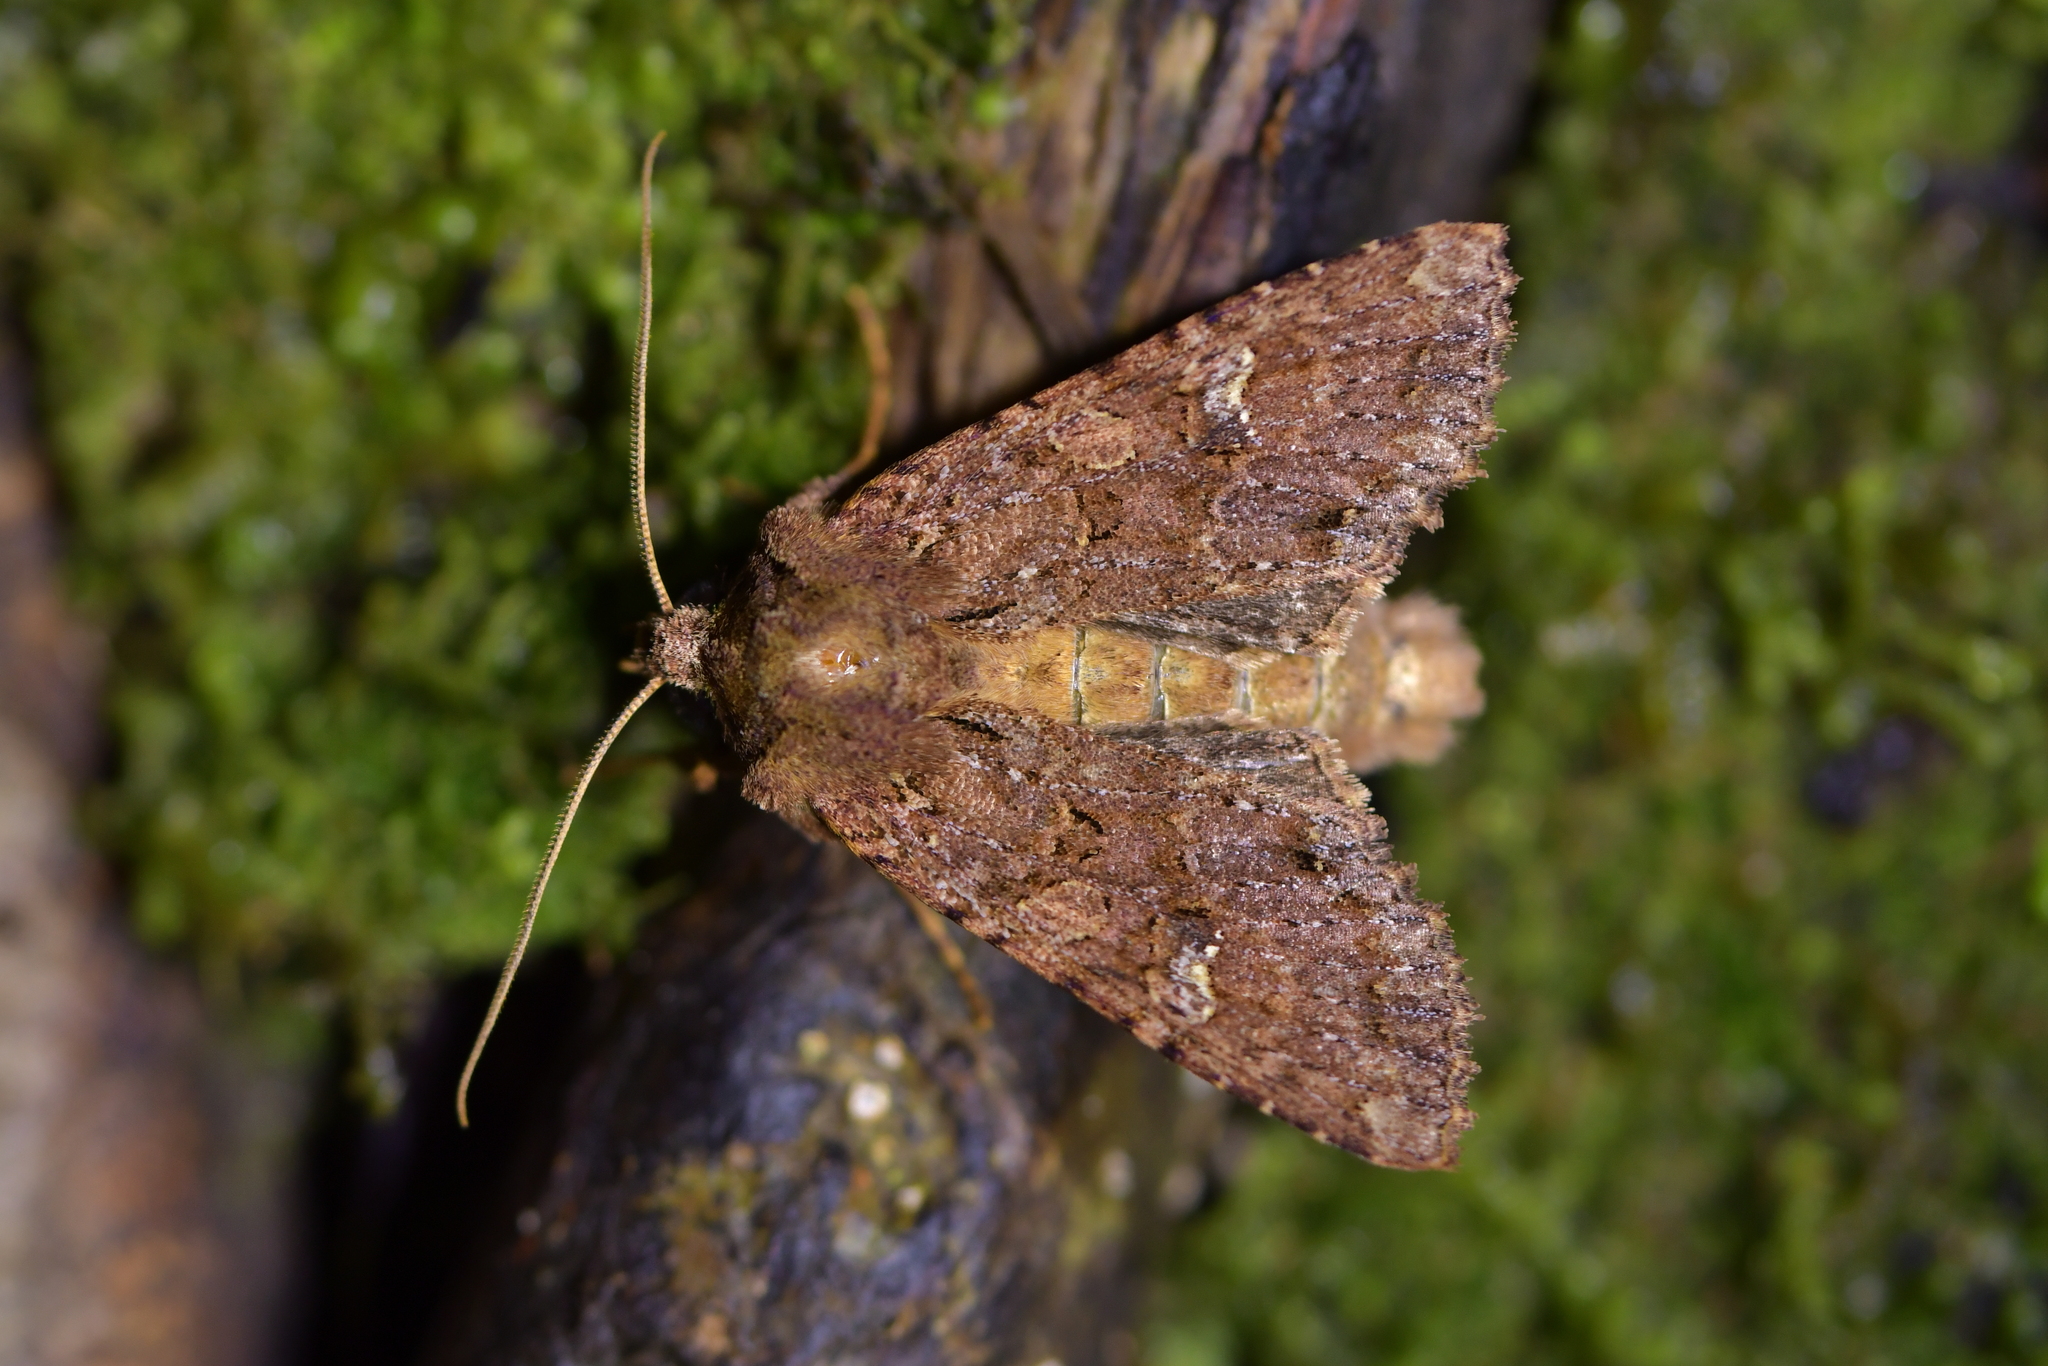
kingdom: Animalia
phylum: Arthropoda
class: Insecta
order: Lepidoptera
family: Noctuidae
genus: Meterana
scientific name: Meterana
